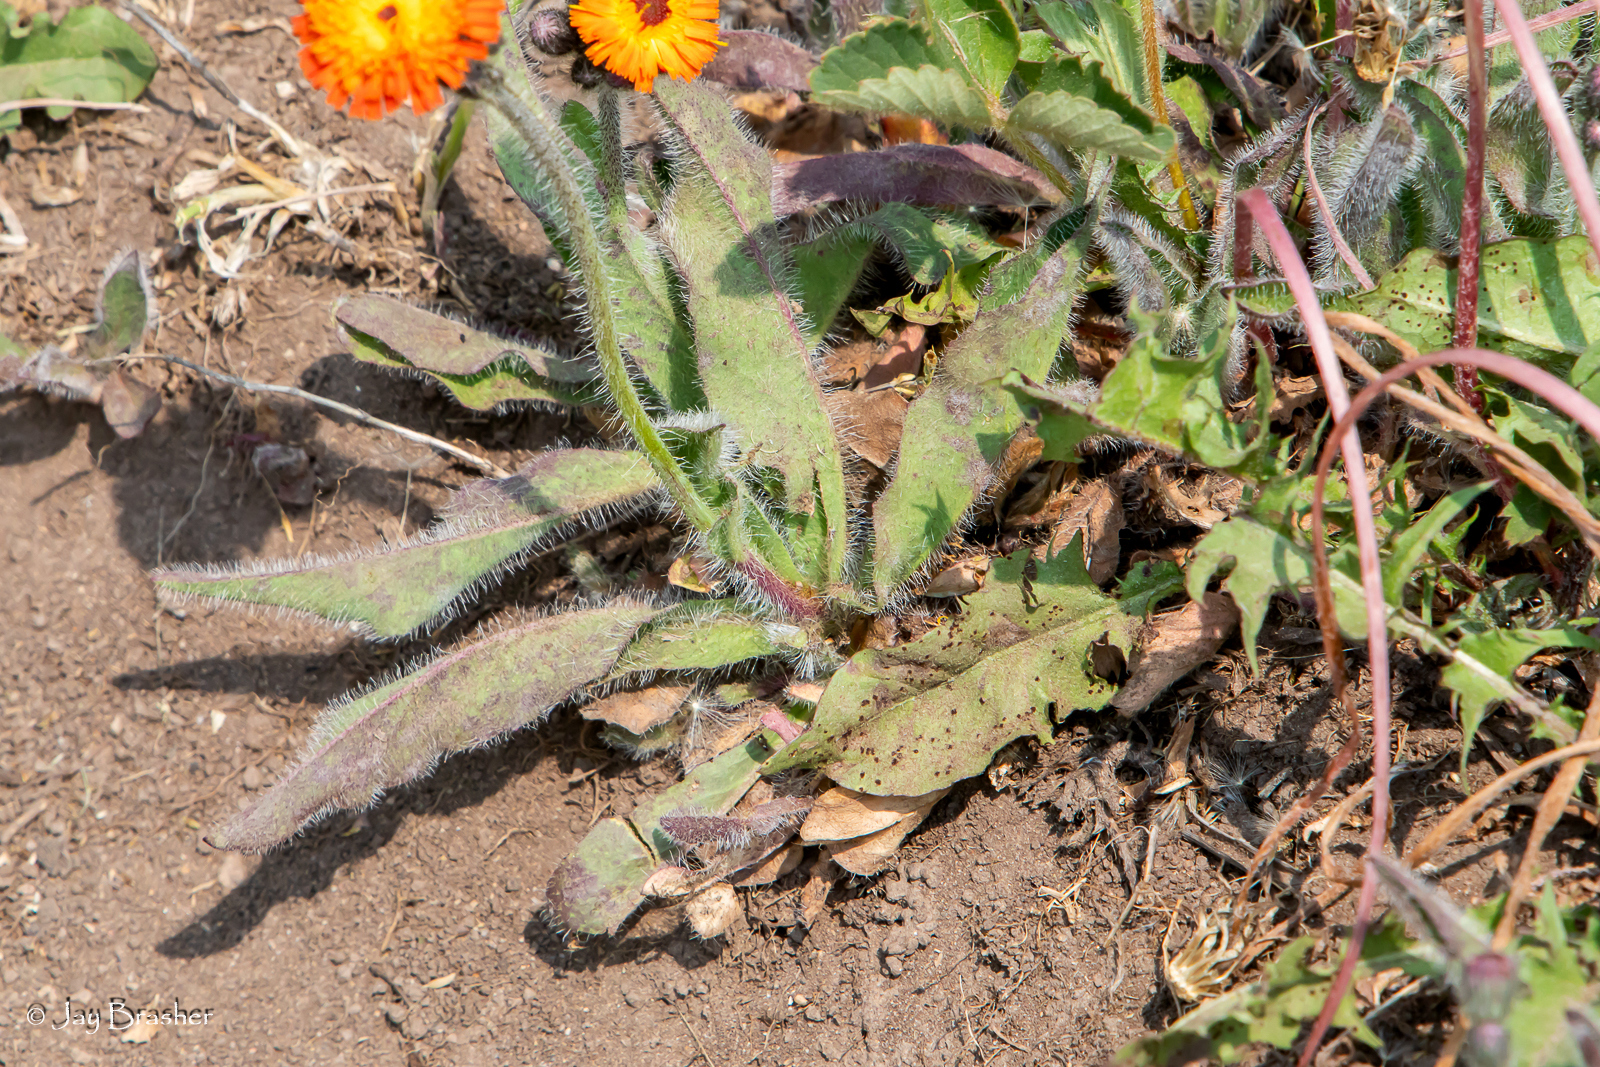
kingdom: Plantae
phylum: Tracheophyta
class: Magnoliopsida
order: Asterales
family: Asteraceae
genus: Pilosella
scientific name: Pilosella aurantiaca
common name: Fox-and-cubs
